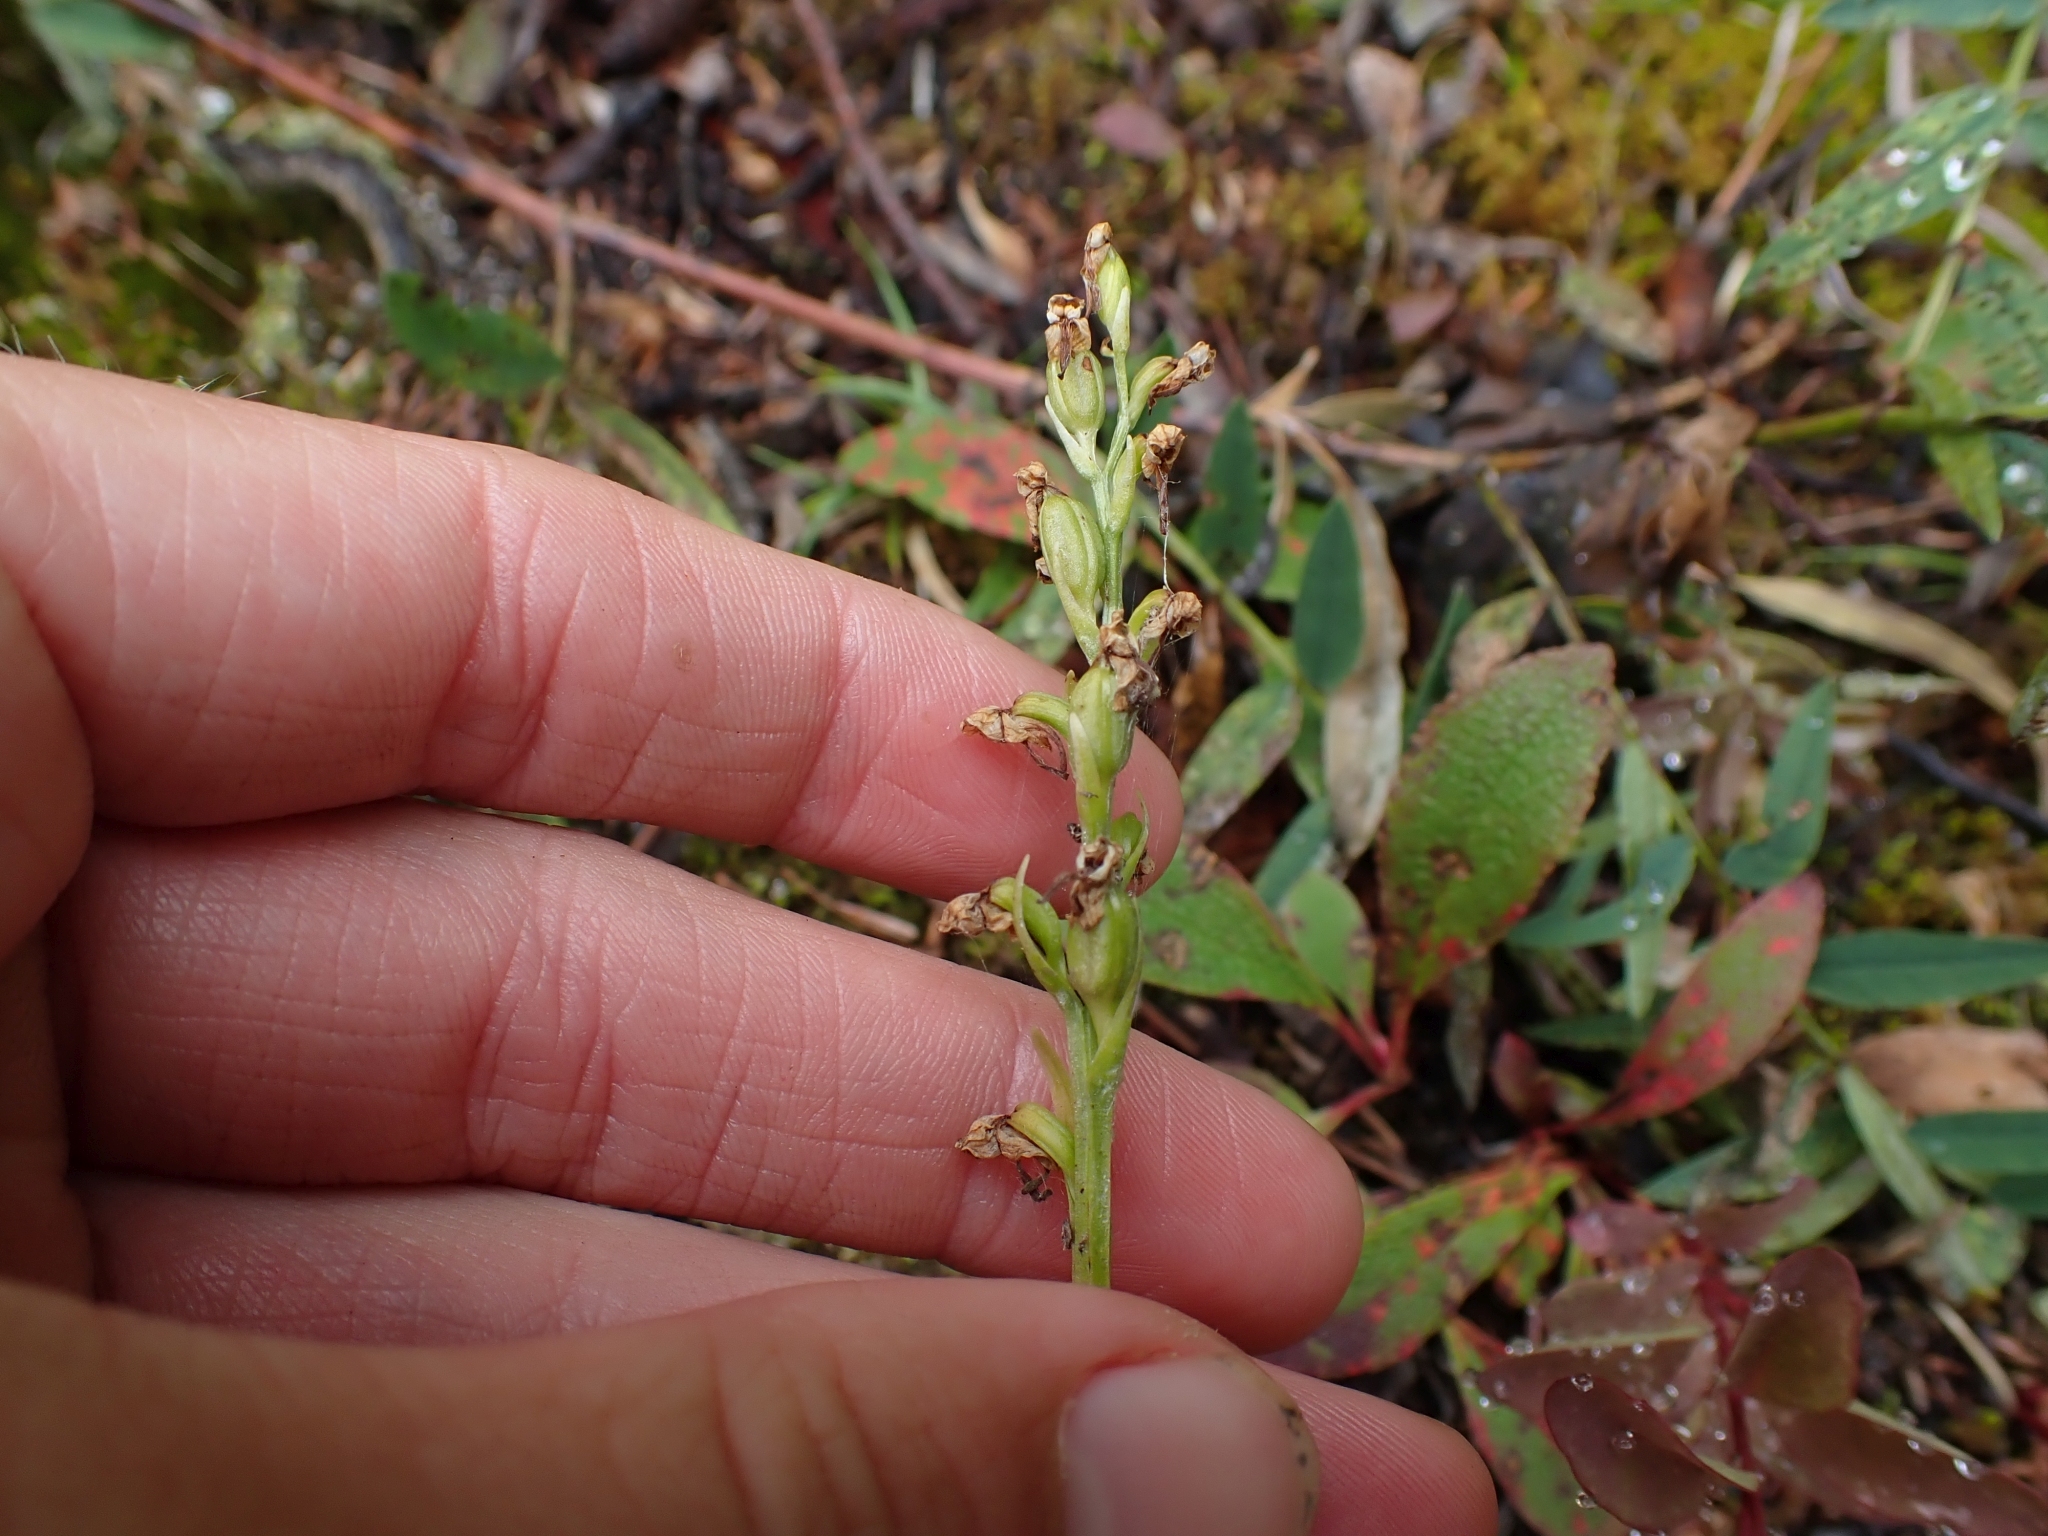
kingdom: Plantae
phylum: Tracheophyta
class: Liliopsida
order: Asparagales
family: Orchidaceae
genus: Platanthera
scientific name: Platanthera obtusata
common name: Blunt bog orchid
